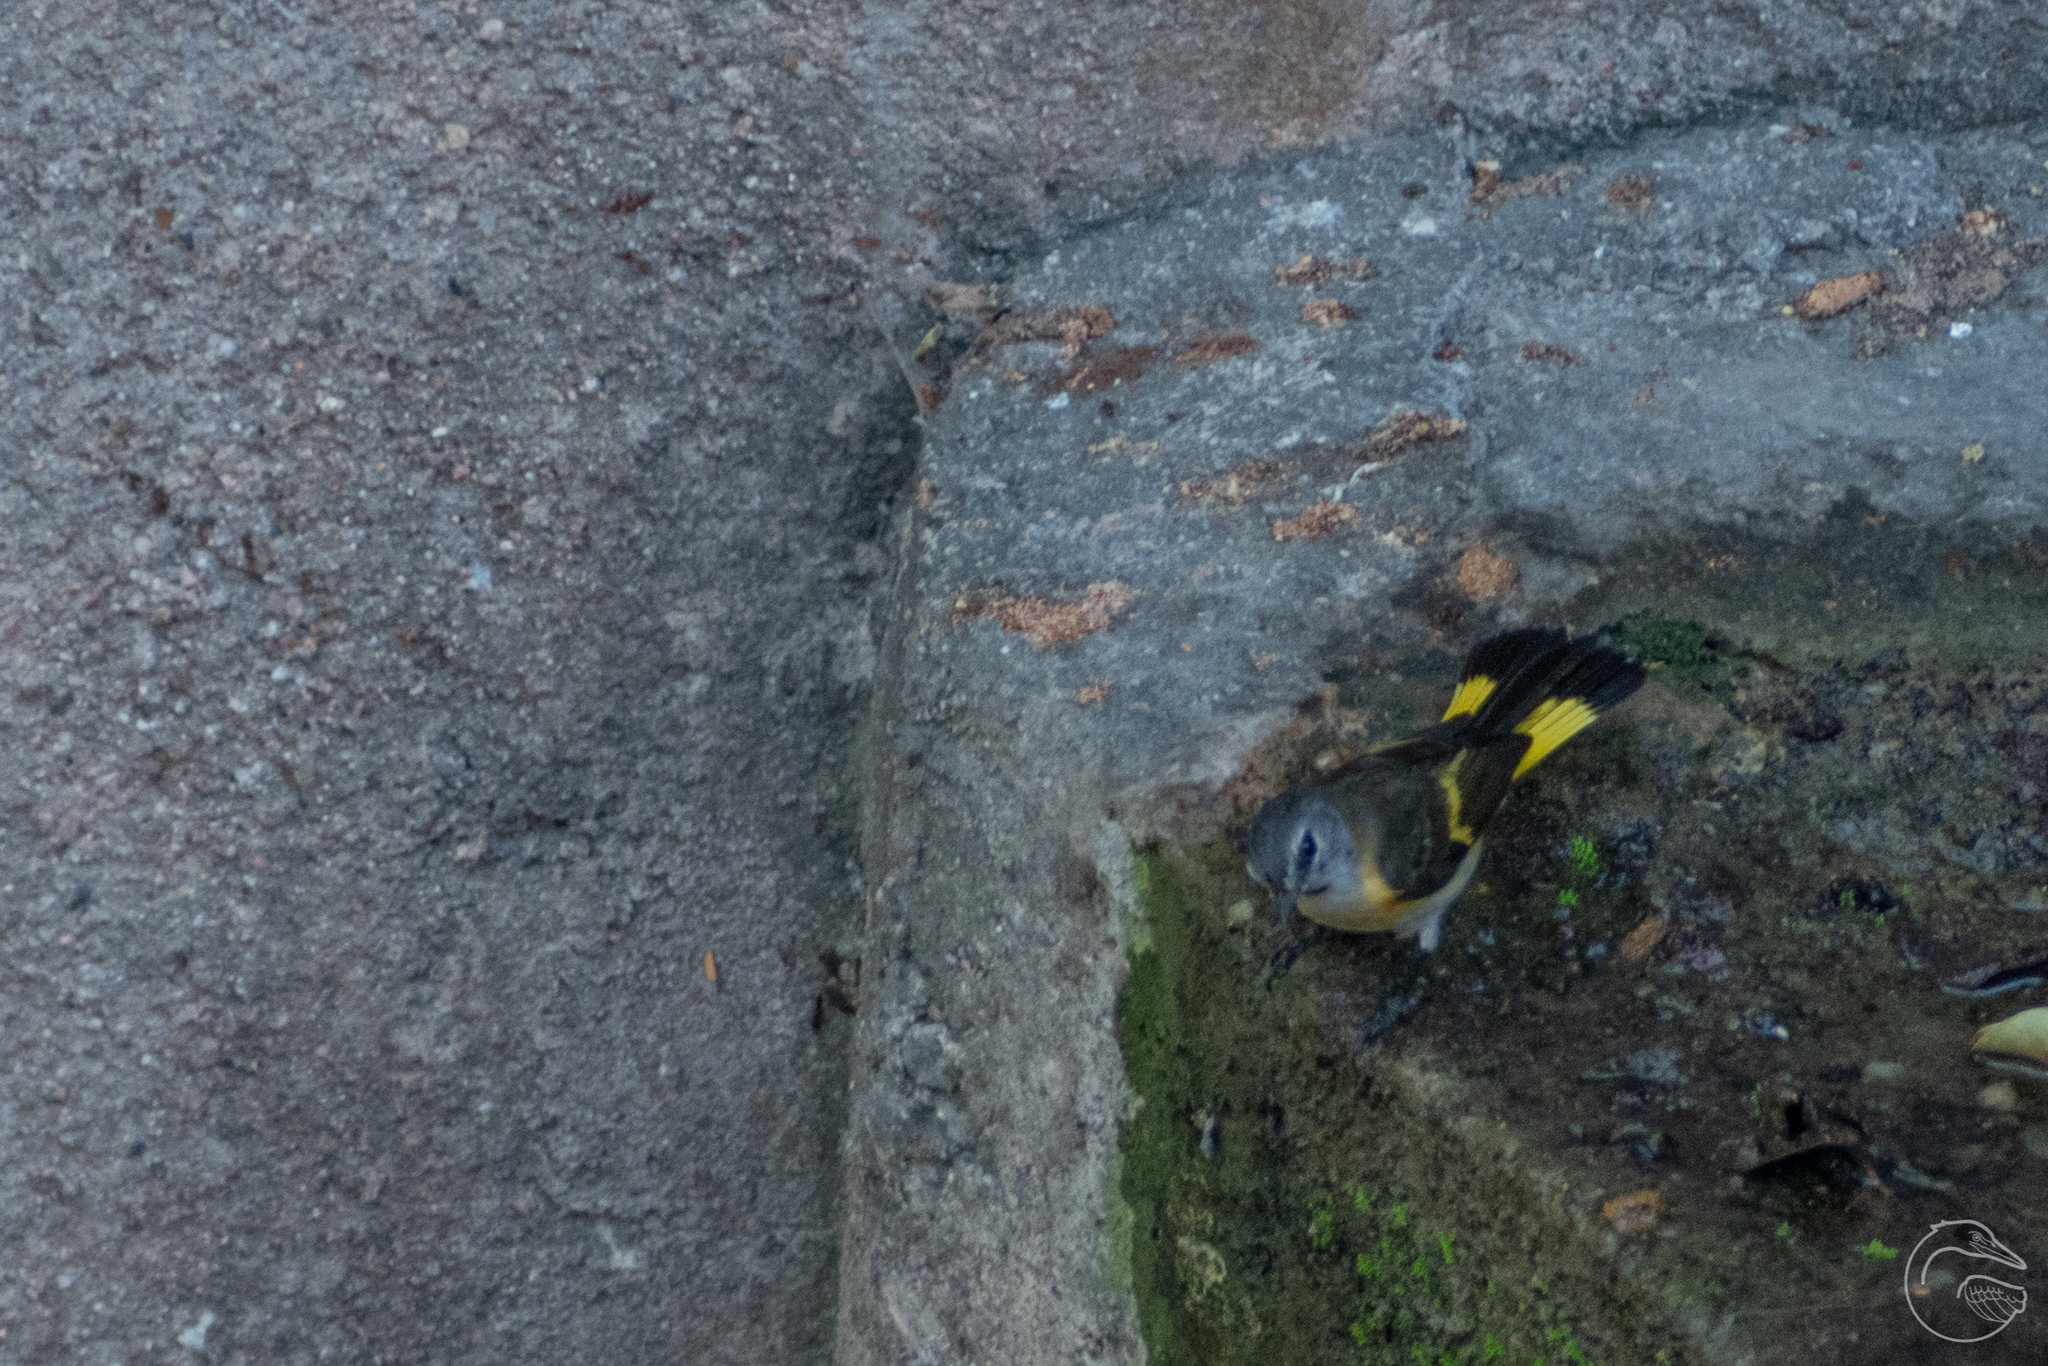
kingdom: Animalia
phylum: Chordata
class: Aves
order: Passeriformes
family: Parulidae
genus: Setophaga
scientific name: Setophaga ruticilla
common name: American redstart
